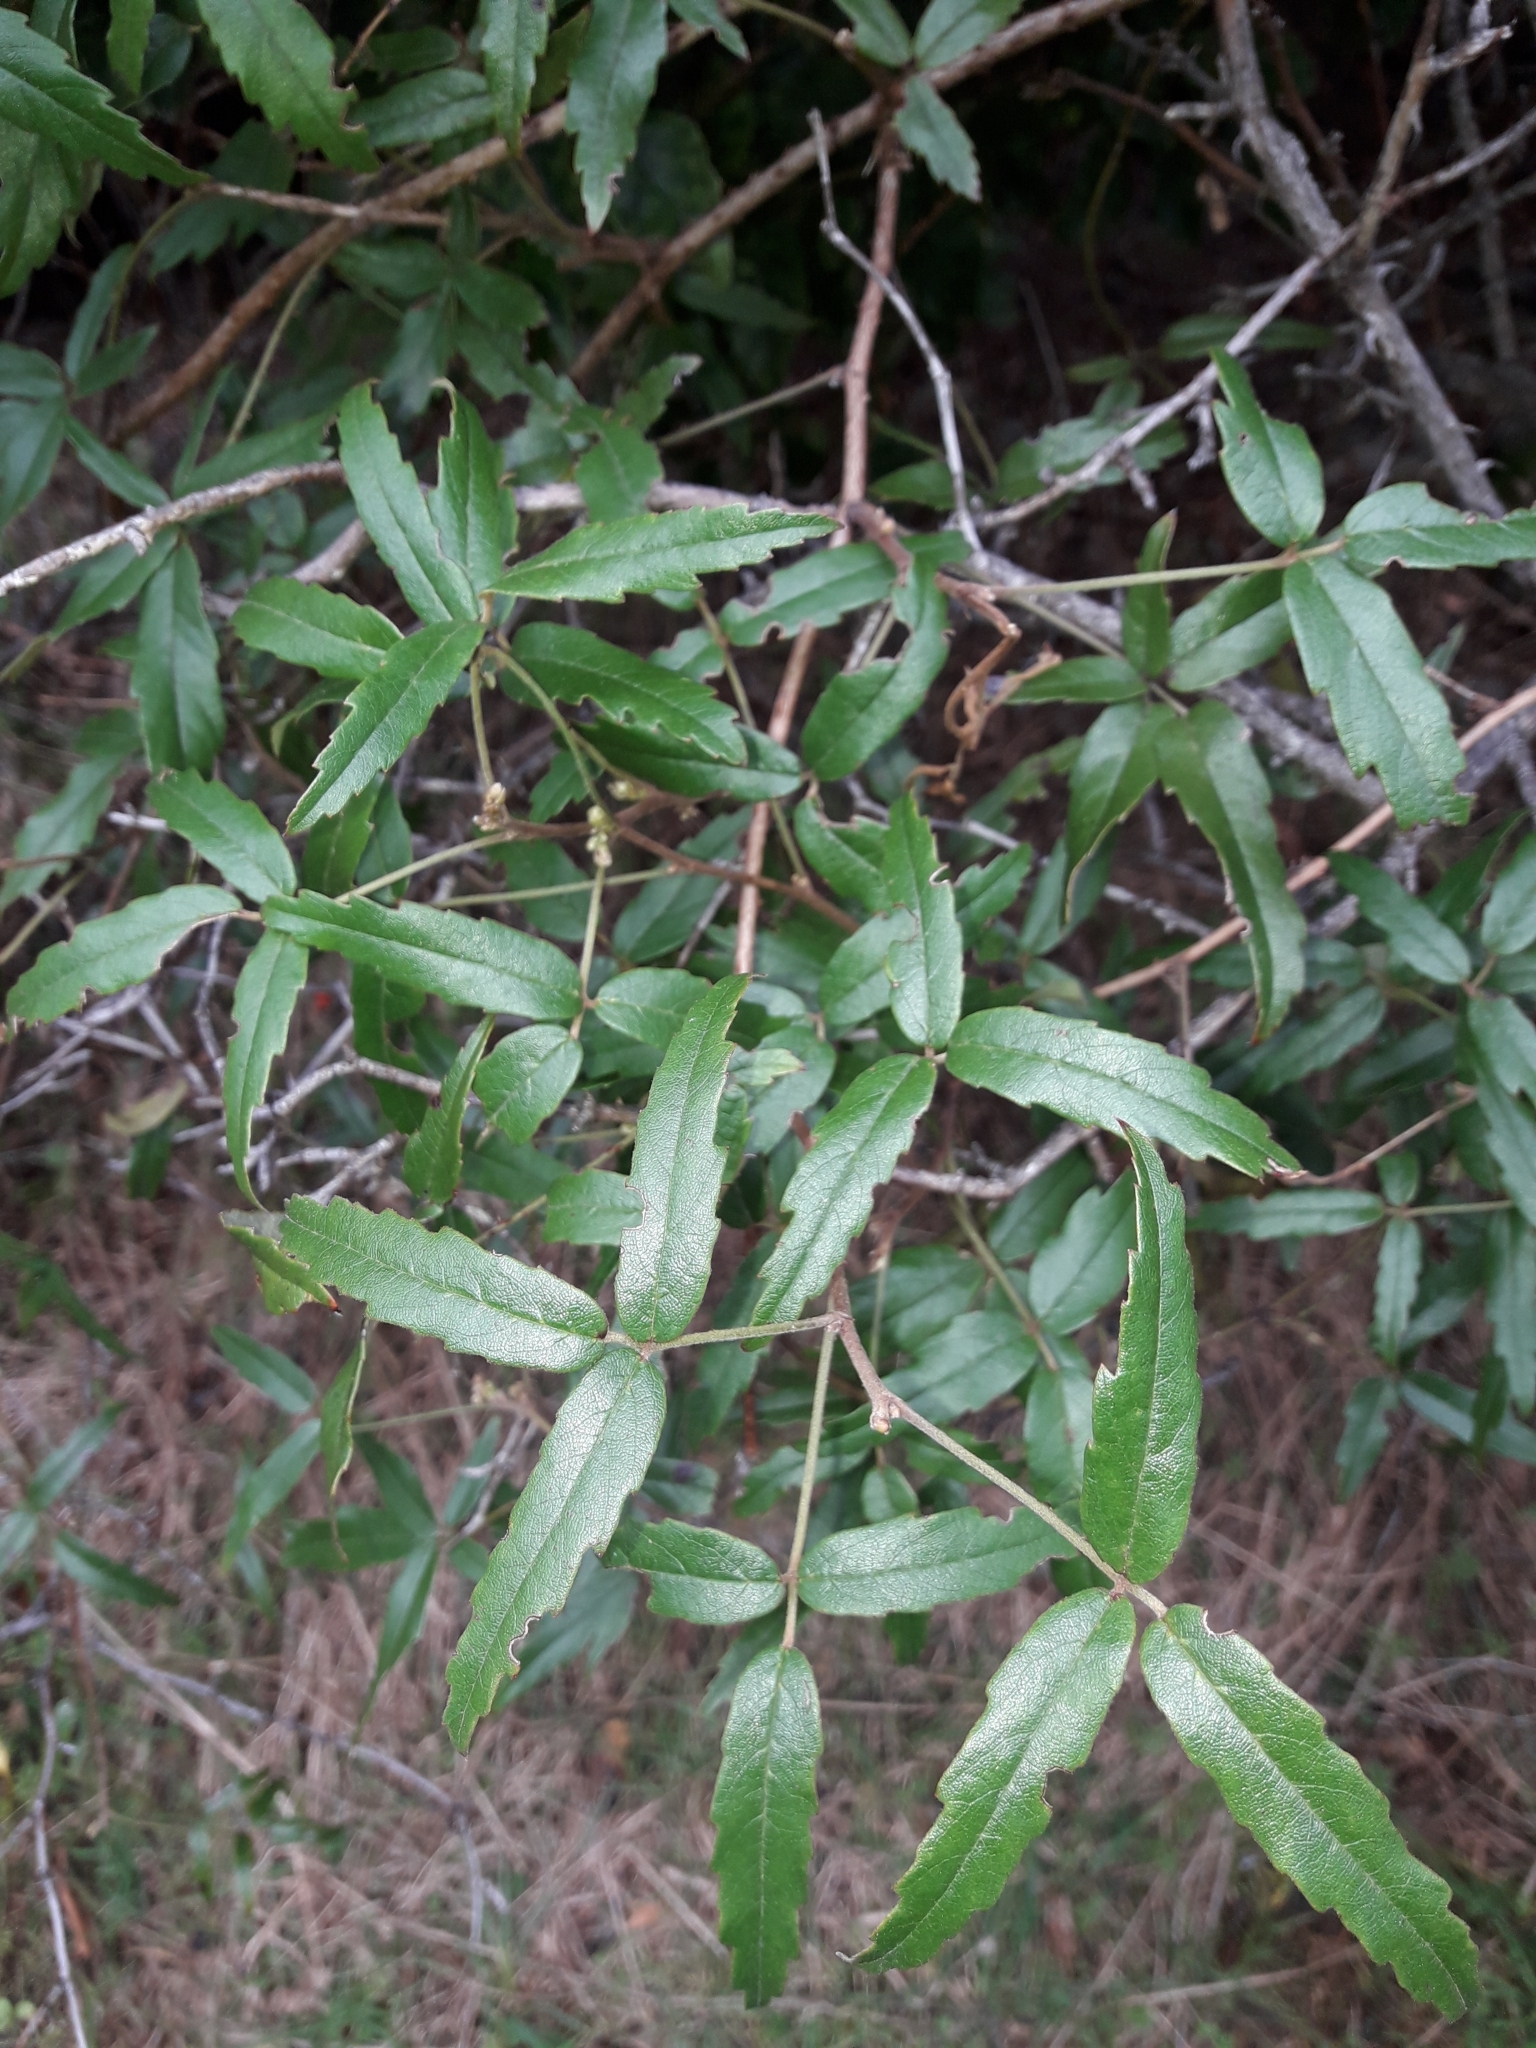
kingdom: Plantae
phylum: Tracheophyta
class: Magnoliopsida
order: Rosales
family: Rosaceae
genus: Rubus
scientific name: Rubus schmidelioides
